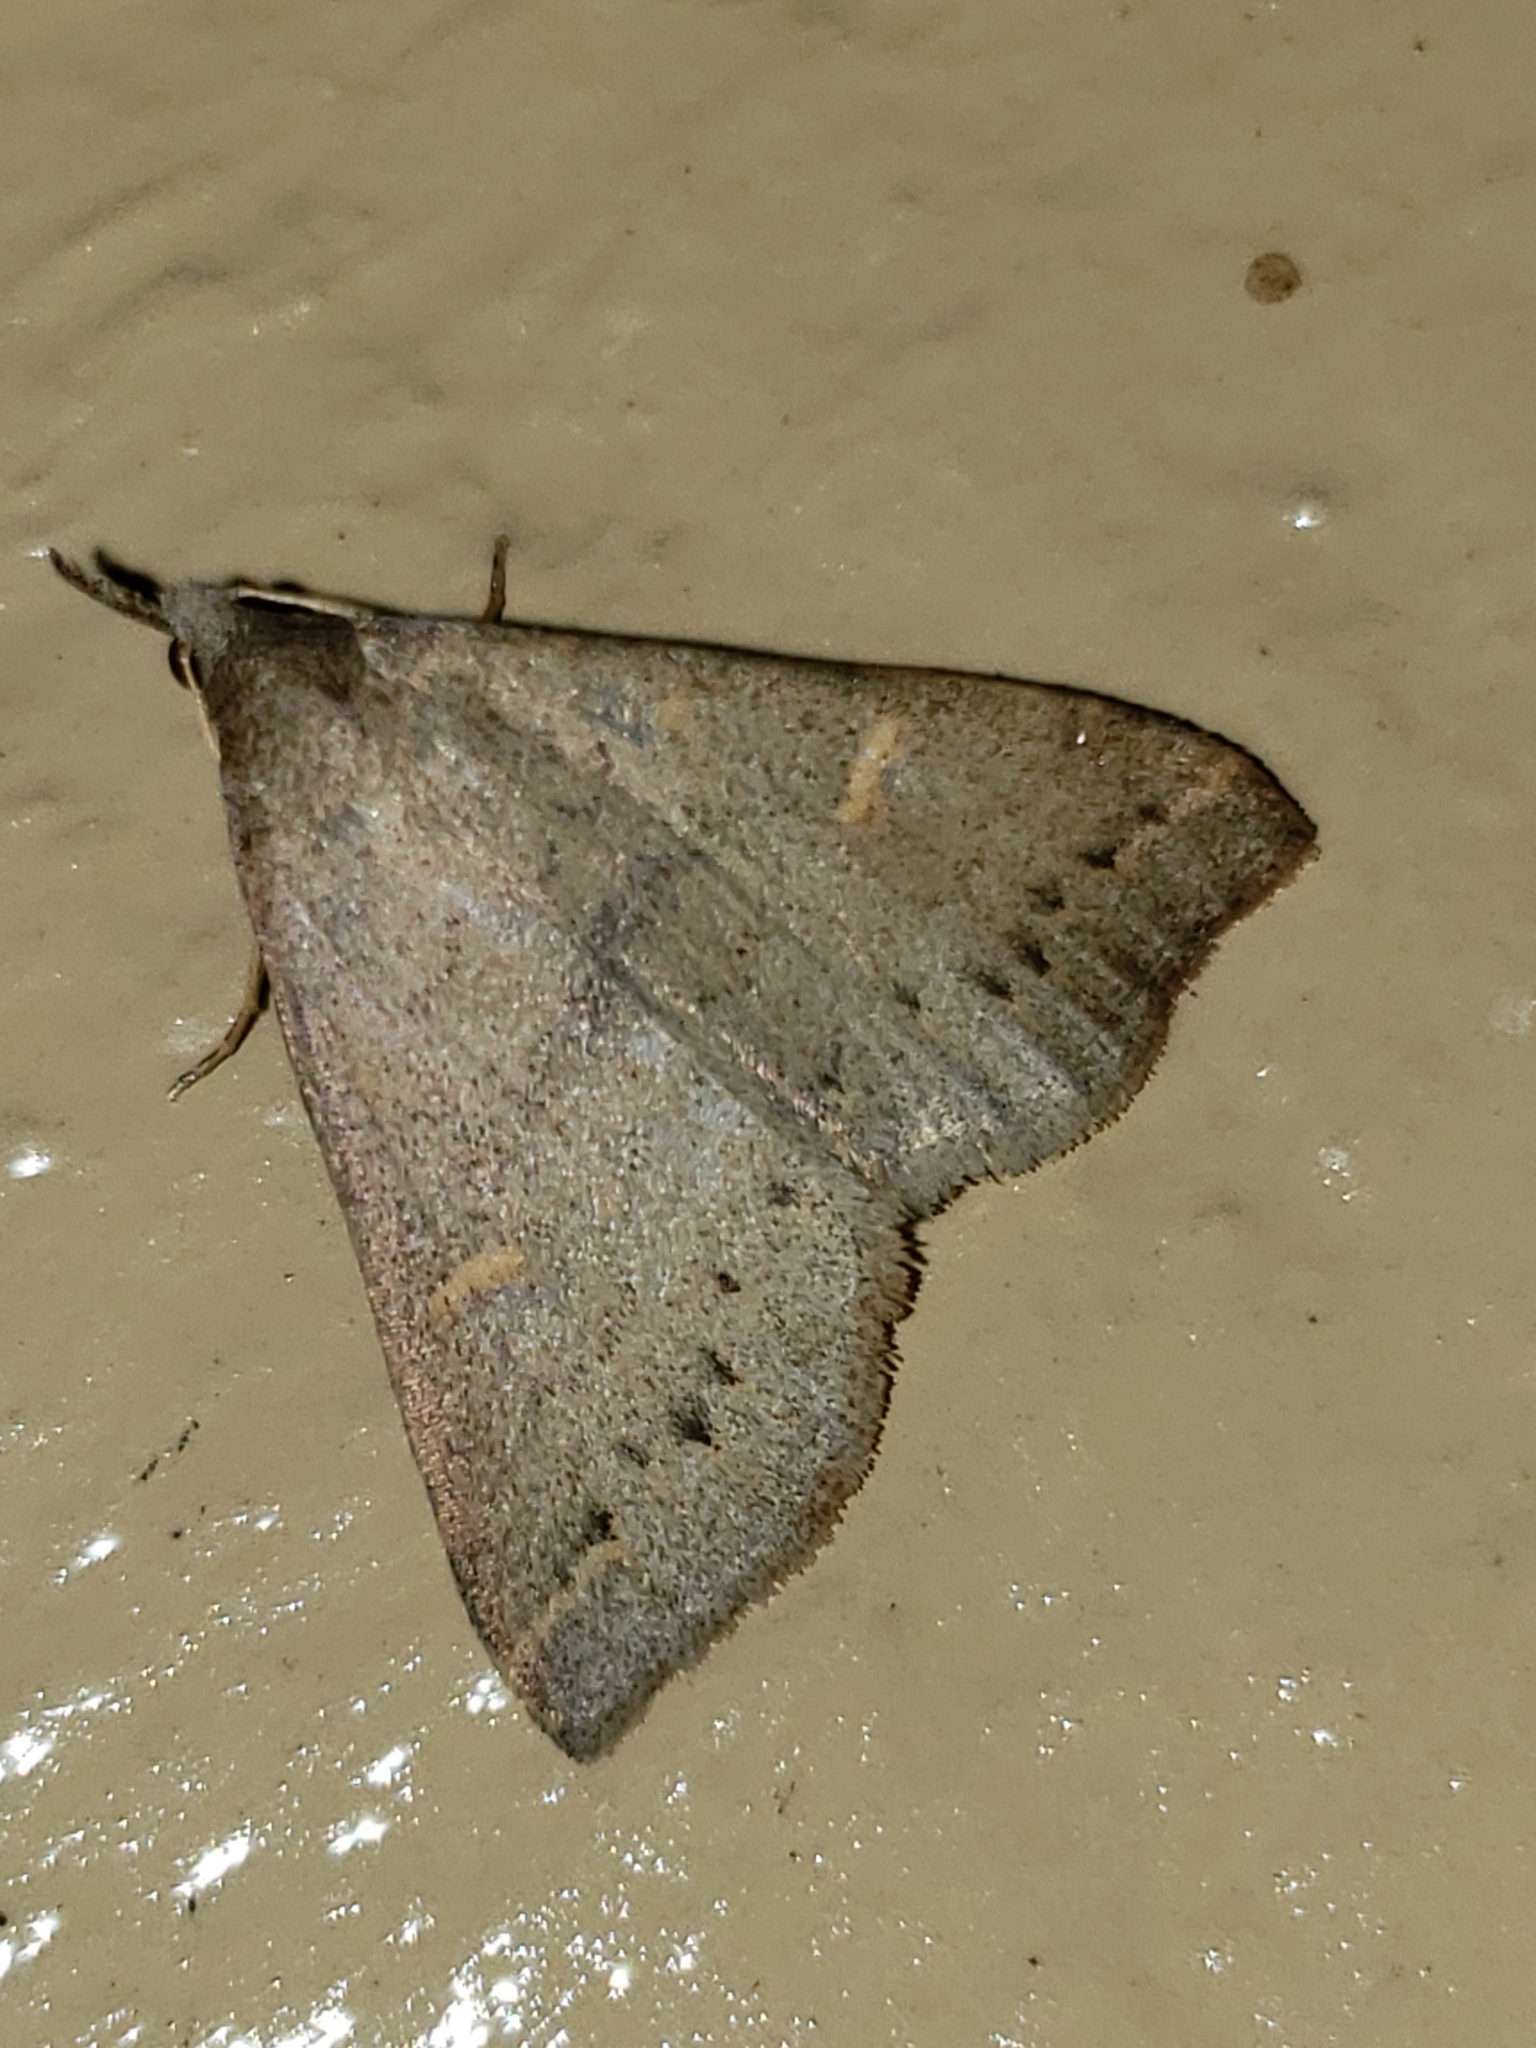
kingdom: Animalia
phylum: Arthropoda
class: Insecta
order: Lepidoptera
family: Erebidae
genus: Renia
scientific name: Renia adspergillus
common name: Speckled renia moth
